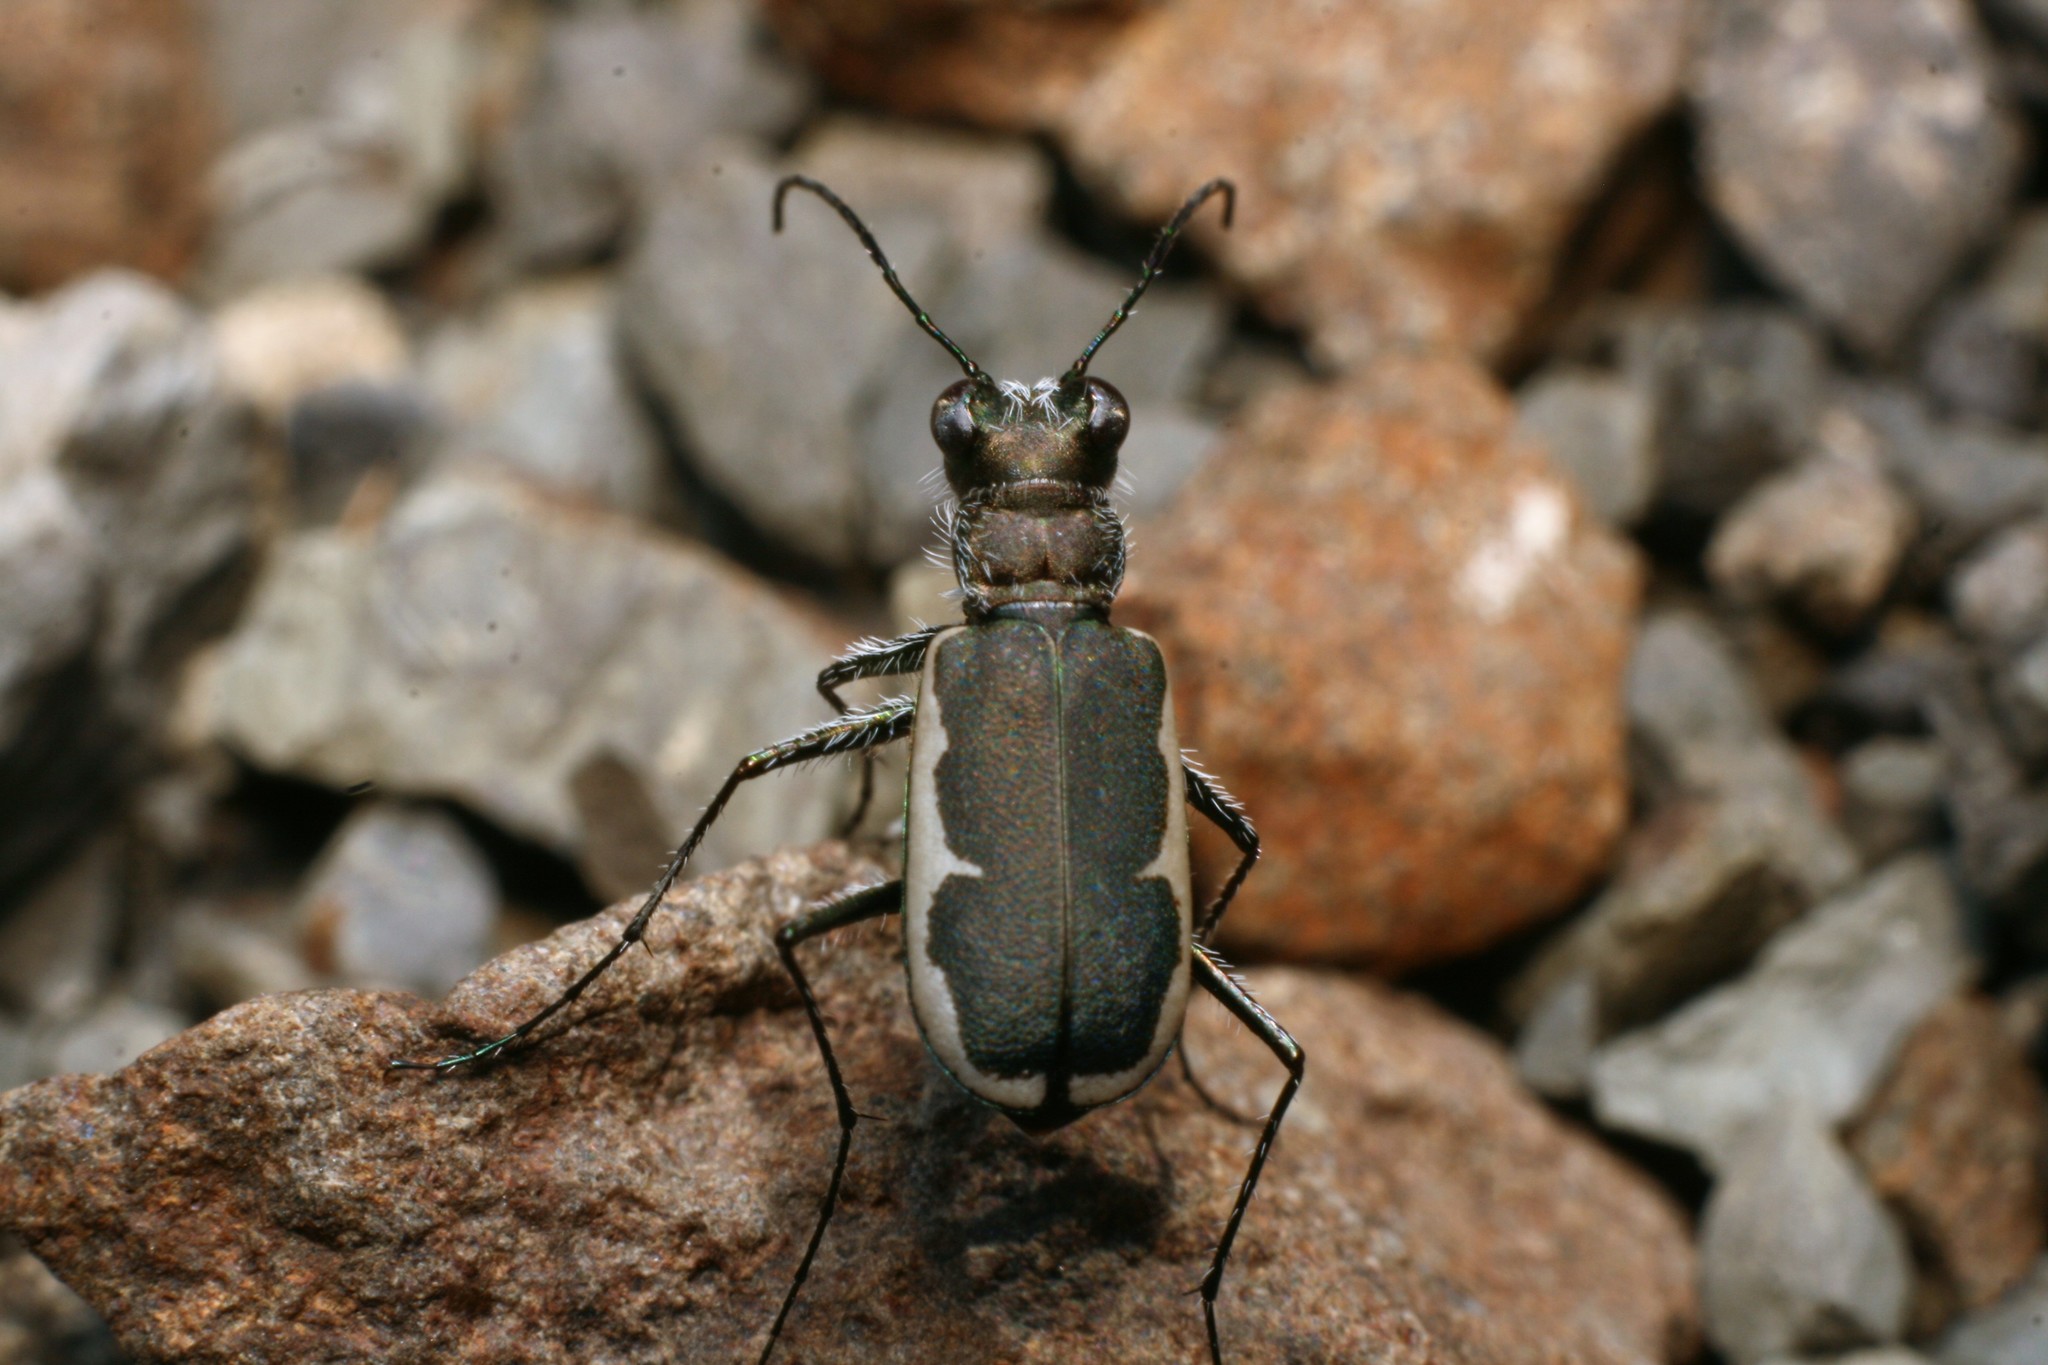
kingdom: Animalia
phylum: Arthropoda
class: Insecta
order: Coleoptera
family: Carabidae
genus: Zecicindela
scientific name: Zecicindela hamiltoni
